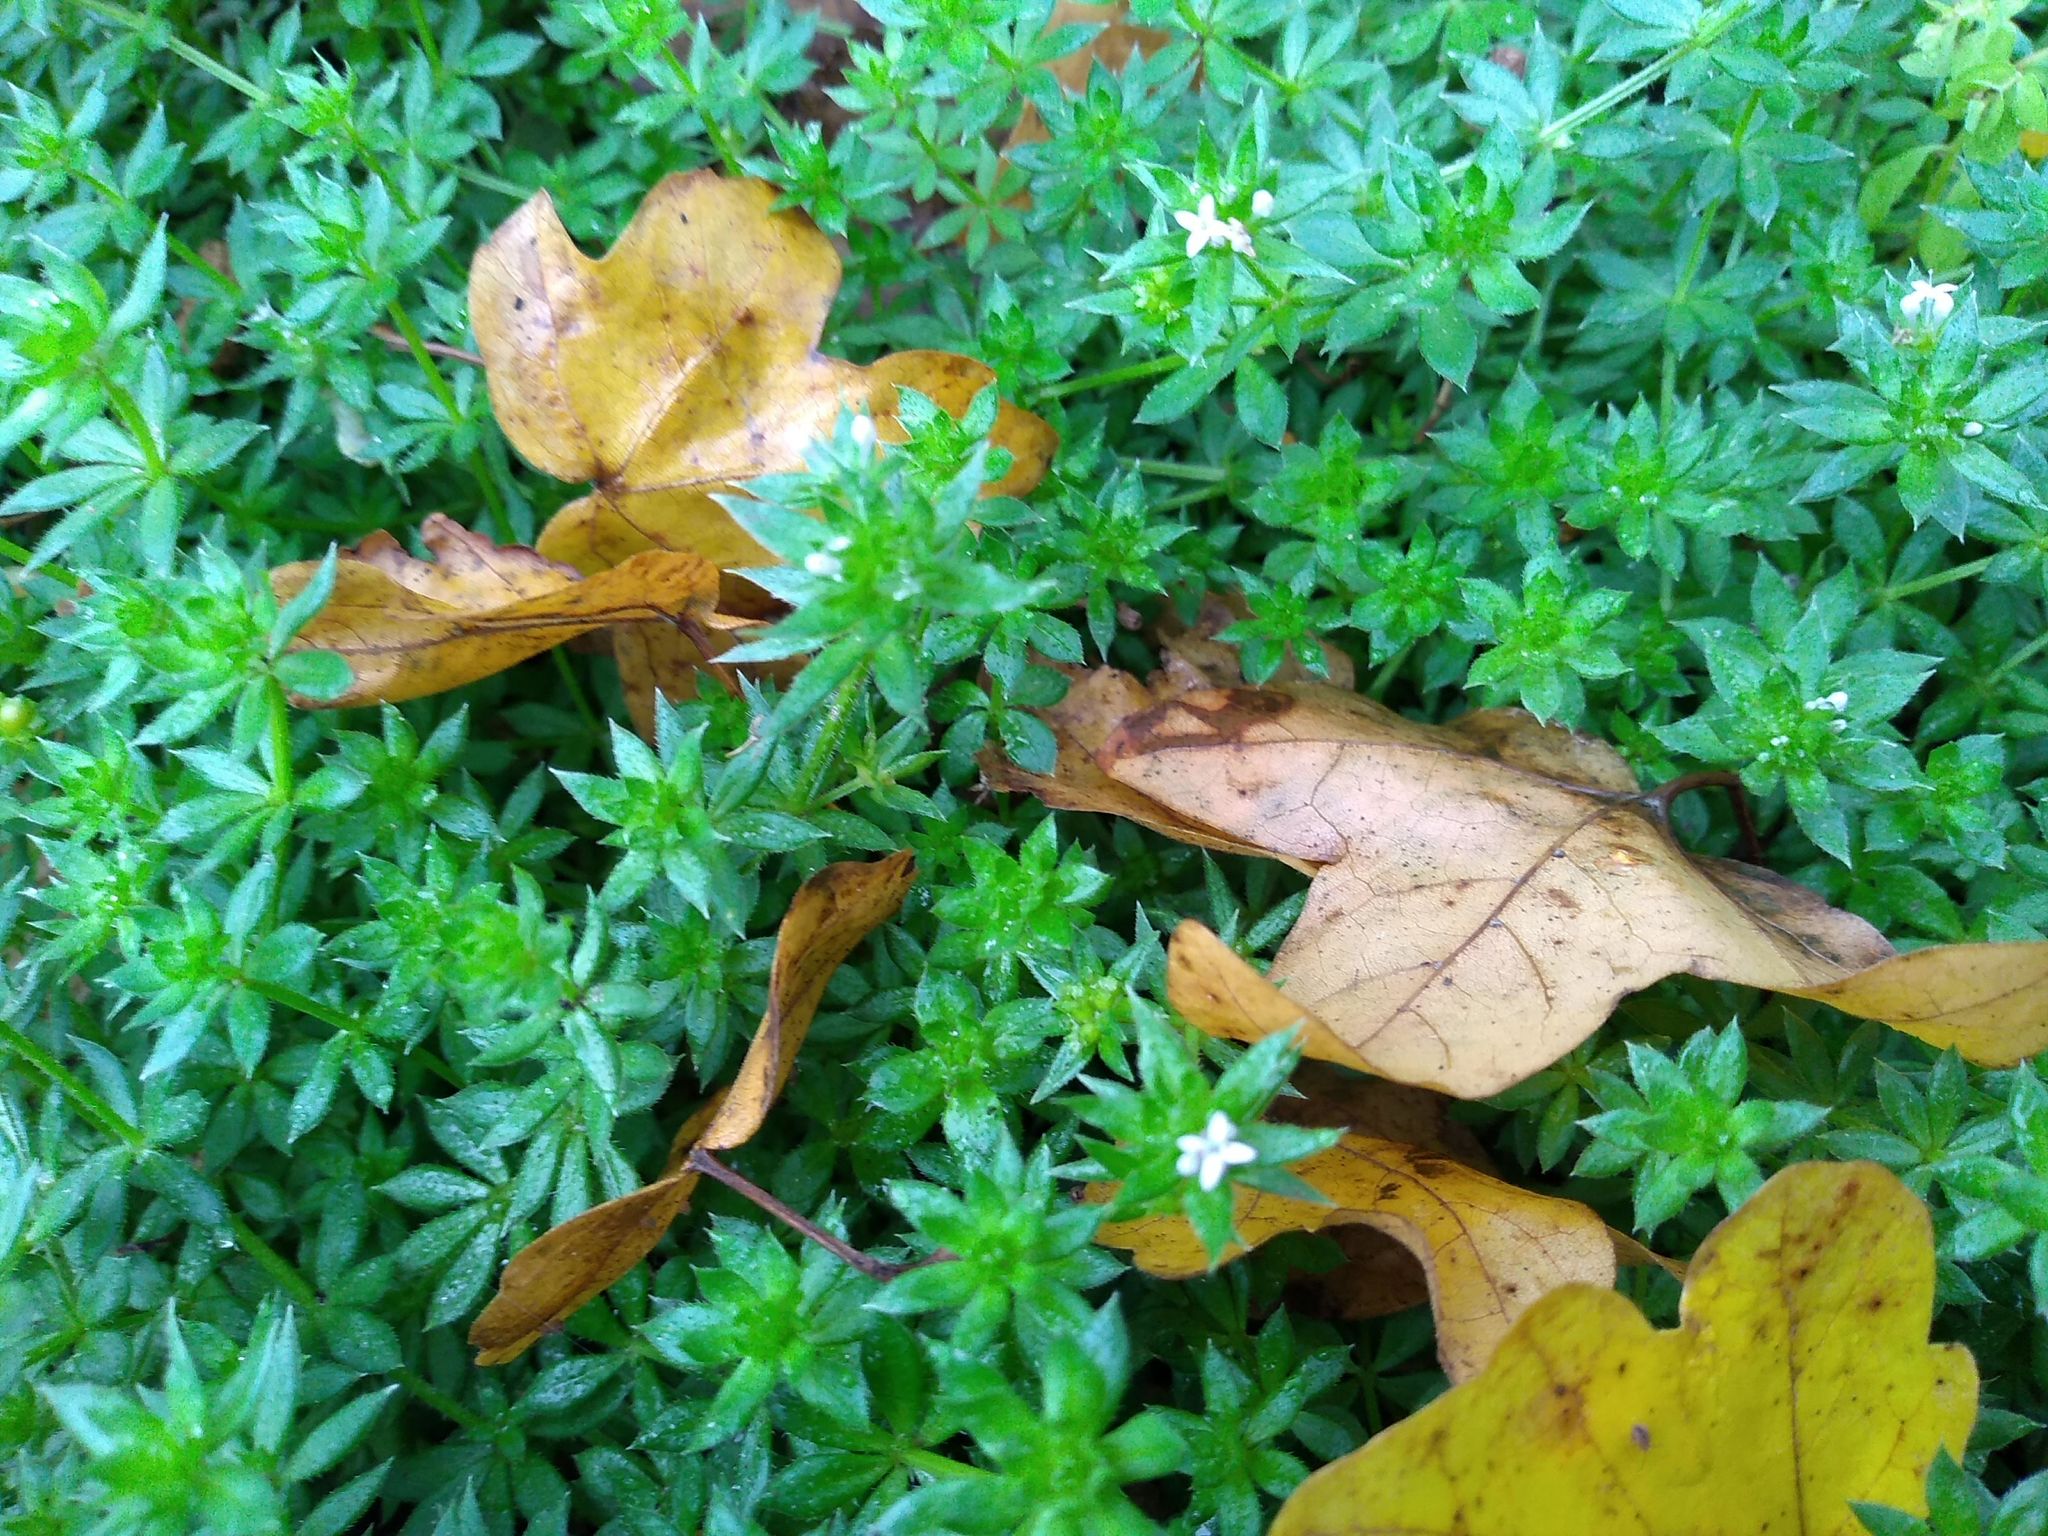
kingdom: Plantae
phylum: Tracheophyta
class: Magnoliopsida
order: Gentianales
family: Rubiaceae
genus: Sherardia
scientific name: Sherardia arvensis
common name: Field madder
